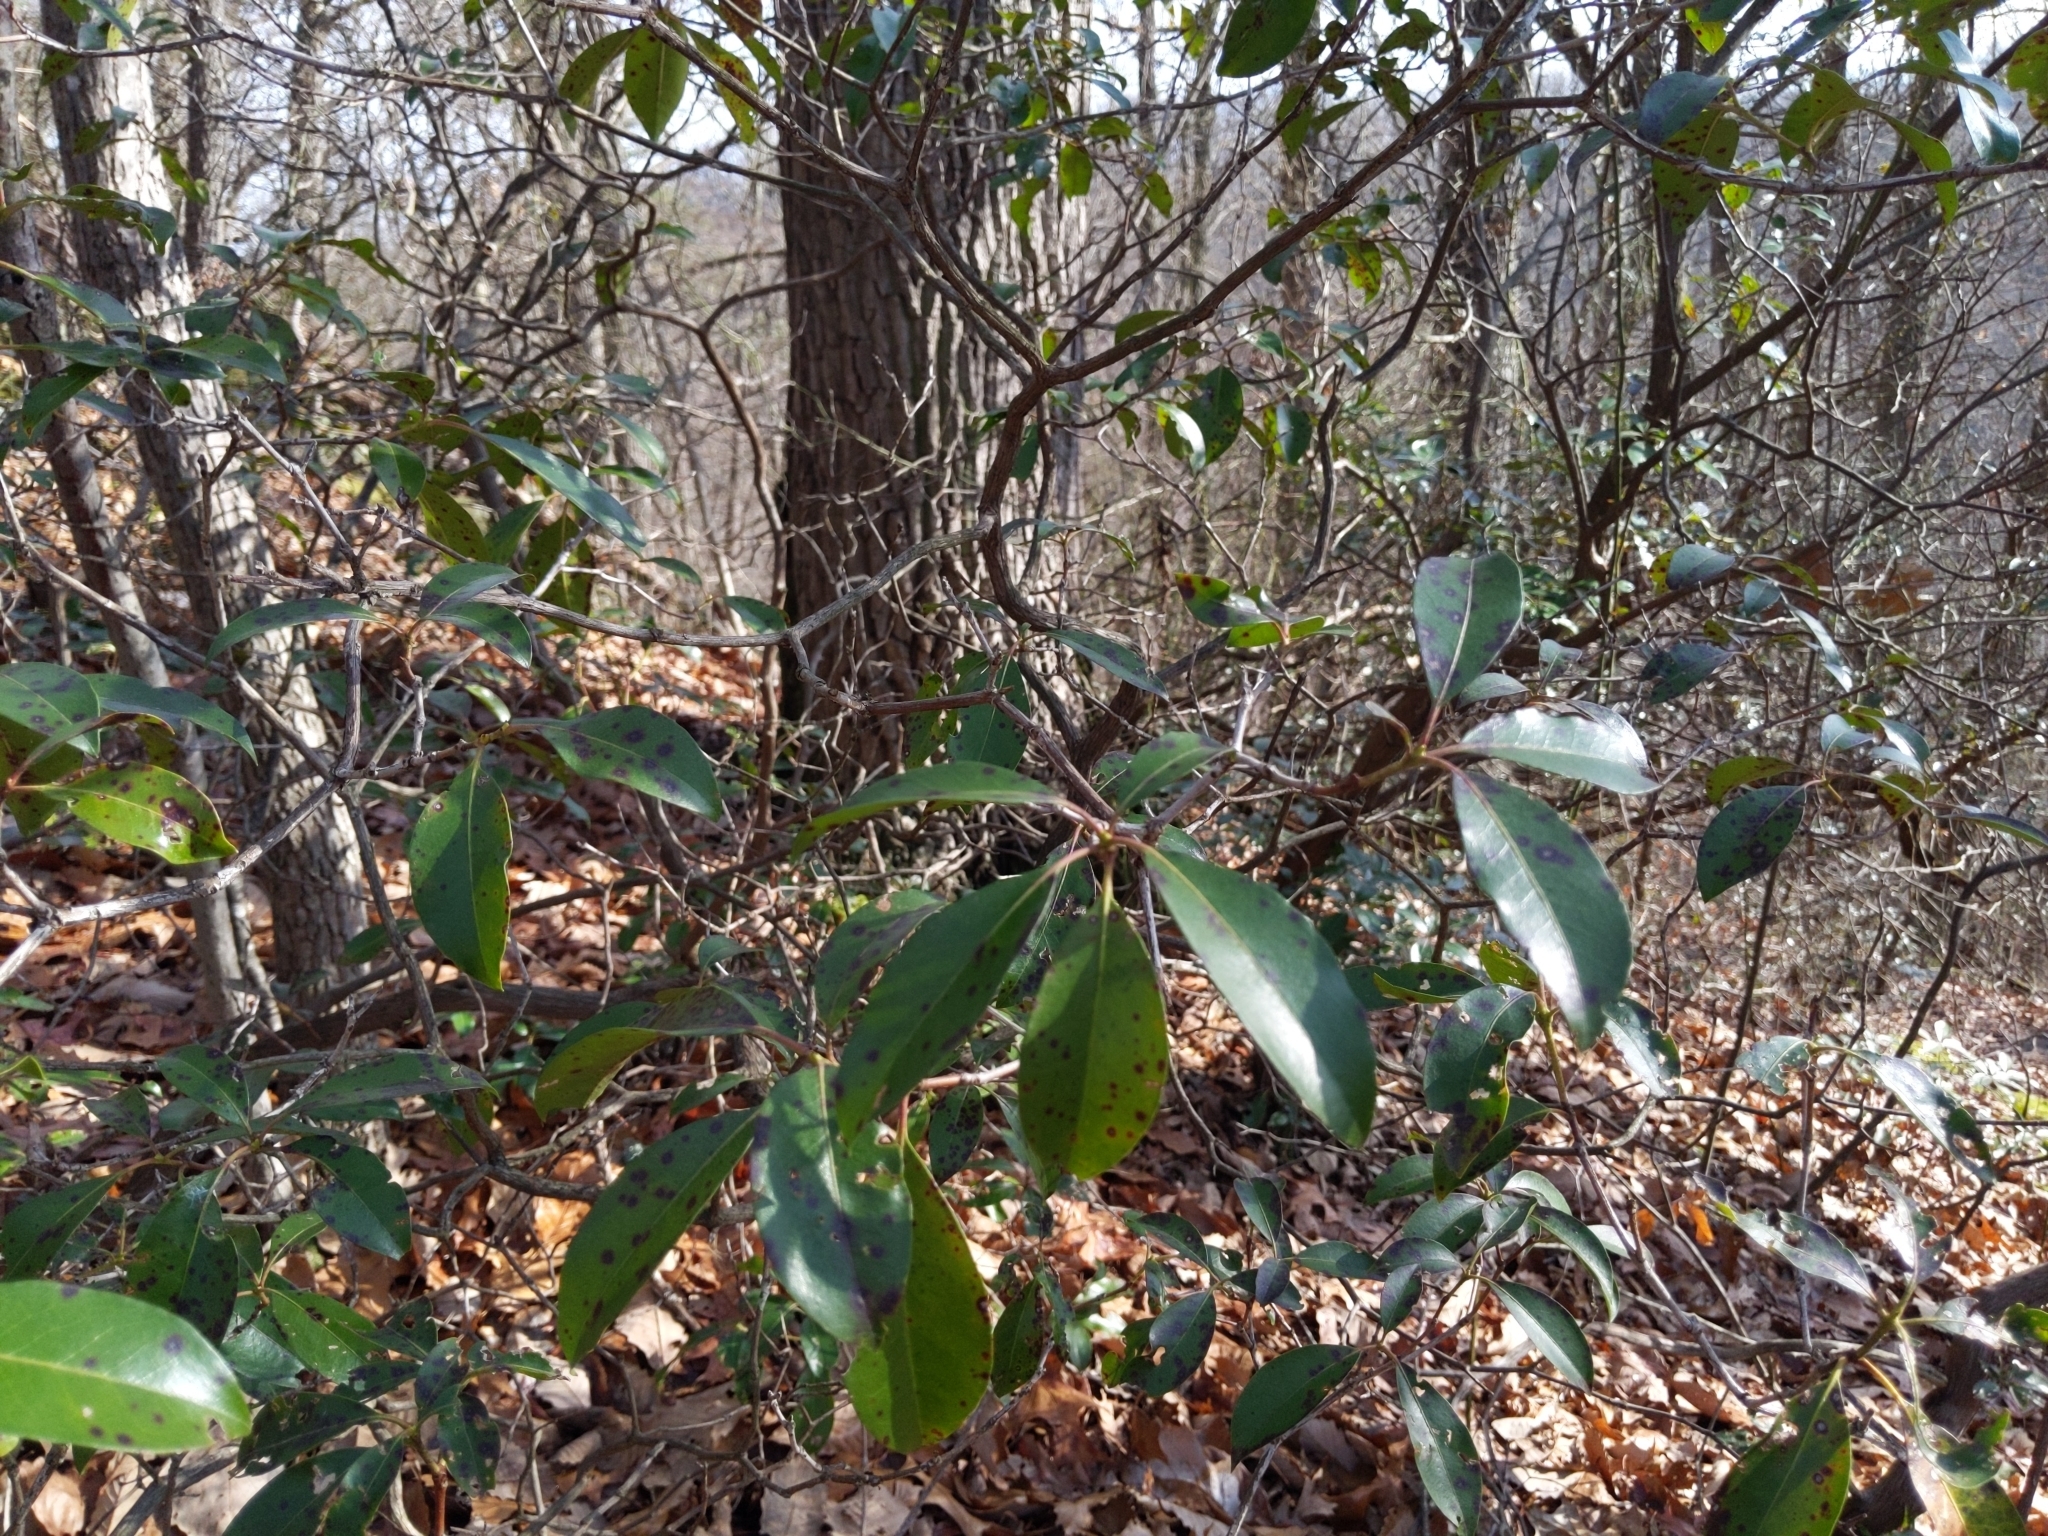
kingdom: Plantae
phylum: Tracheophyta
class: Magnoliopsida
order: Ericales
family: Ericaceae
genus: Kalmia
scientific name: Kalmia latifolia
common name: Mountain-laurel
